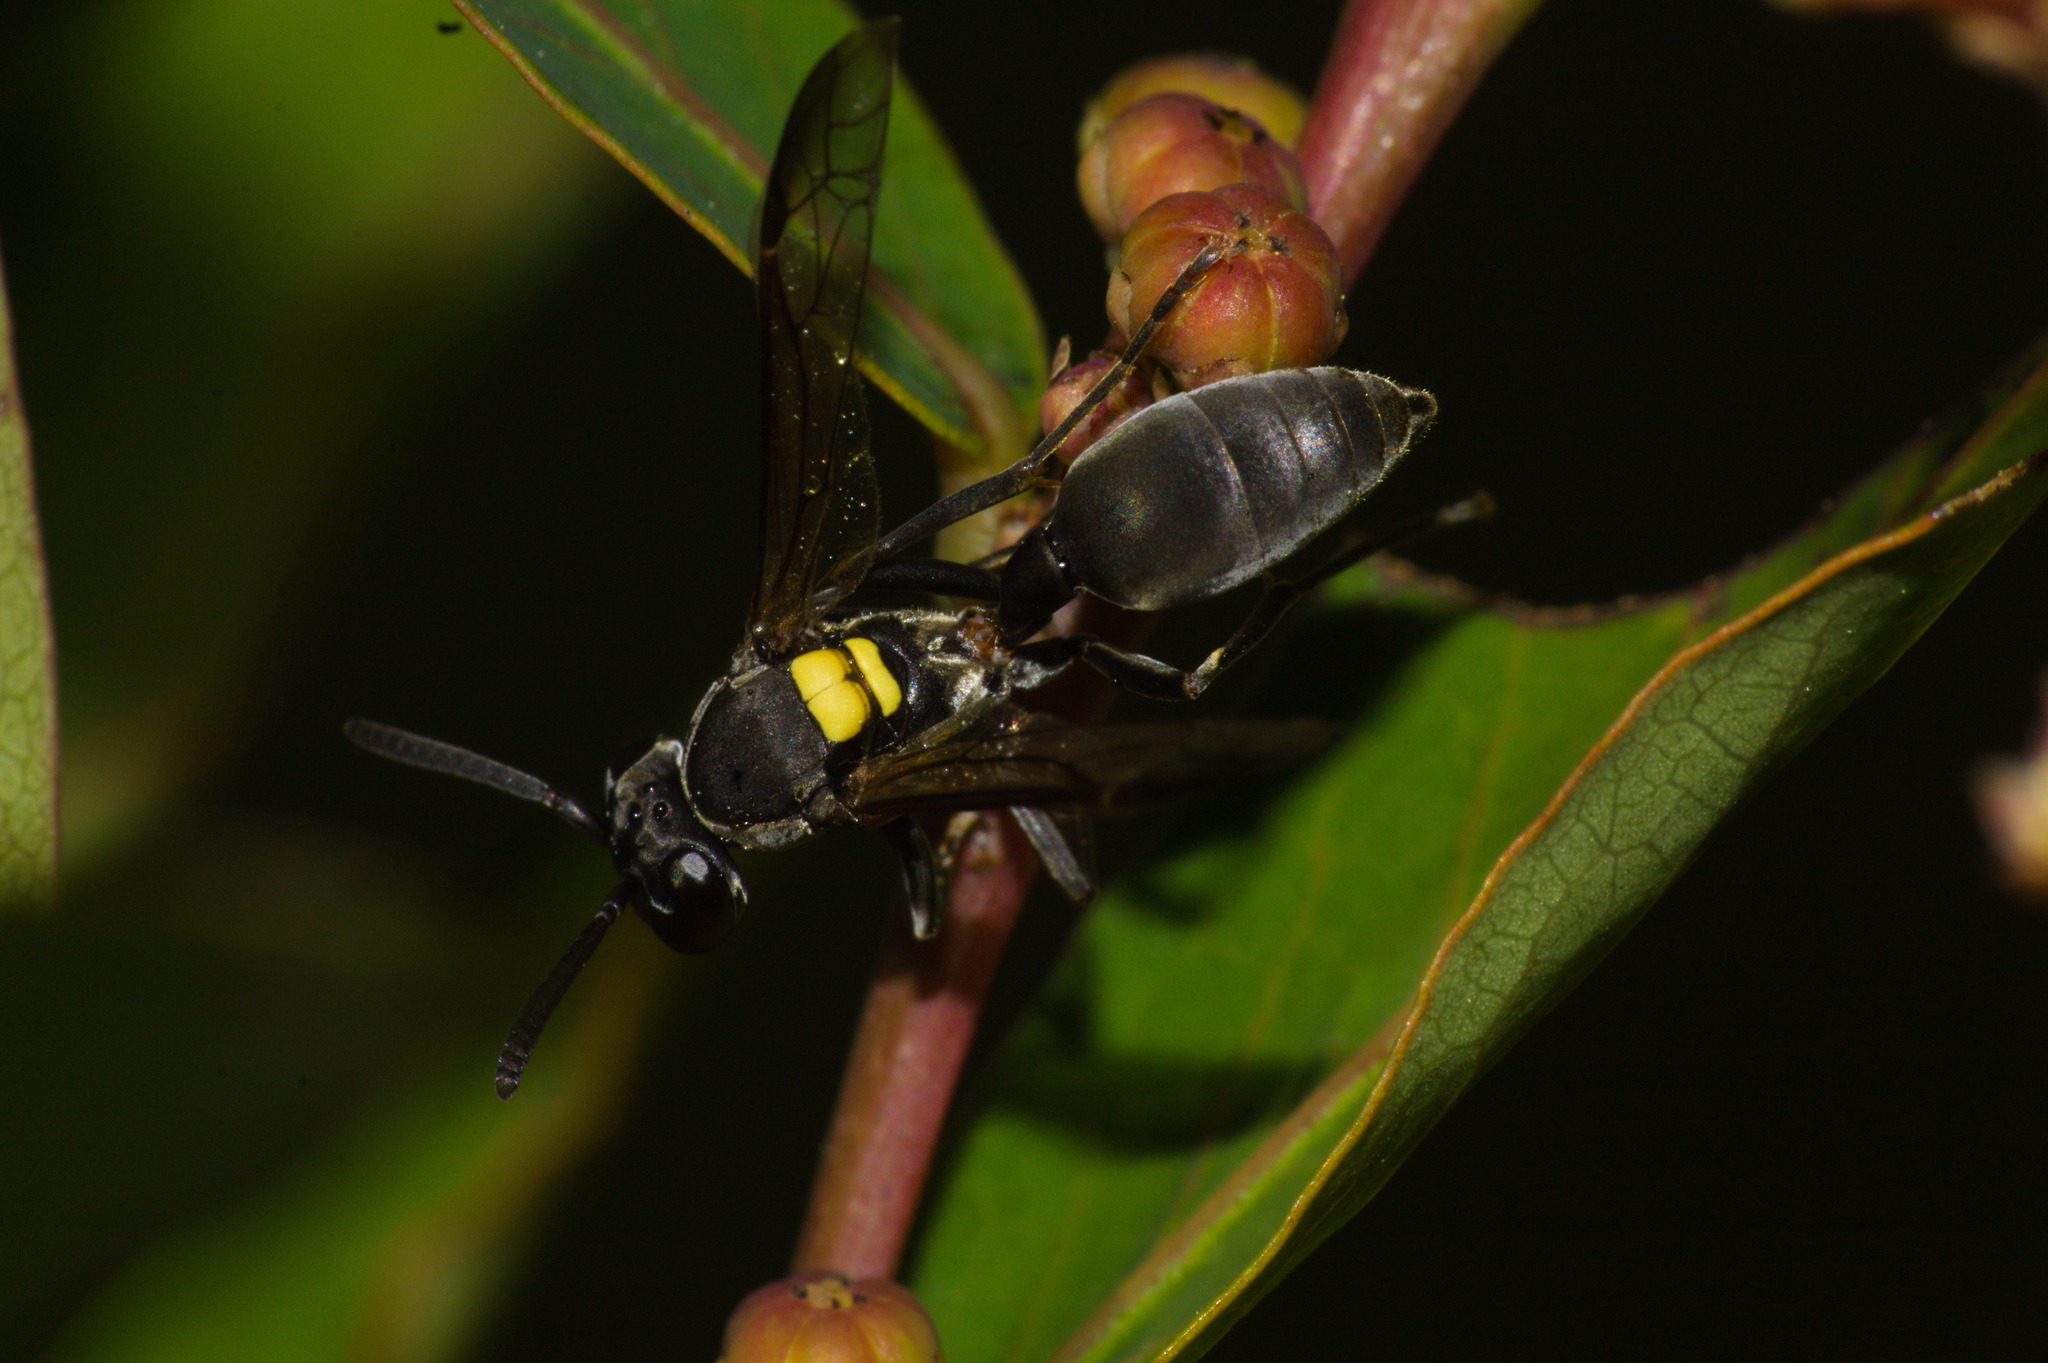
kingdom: Animalia
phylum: Arthropoda
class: Insecta
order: Hymenoptera
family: Eumenidae
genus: Polybia
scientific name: Polybia scutellaris
